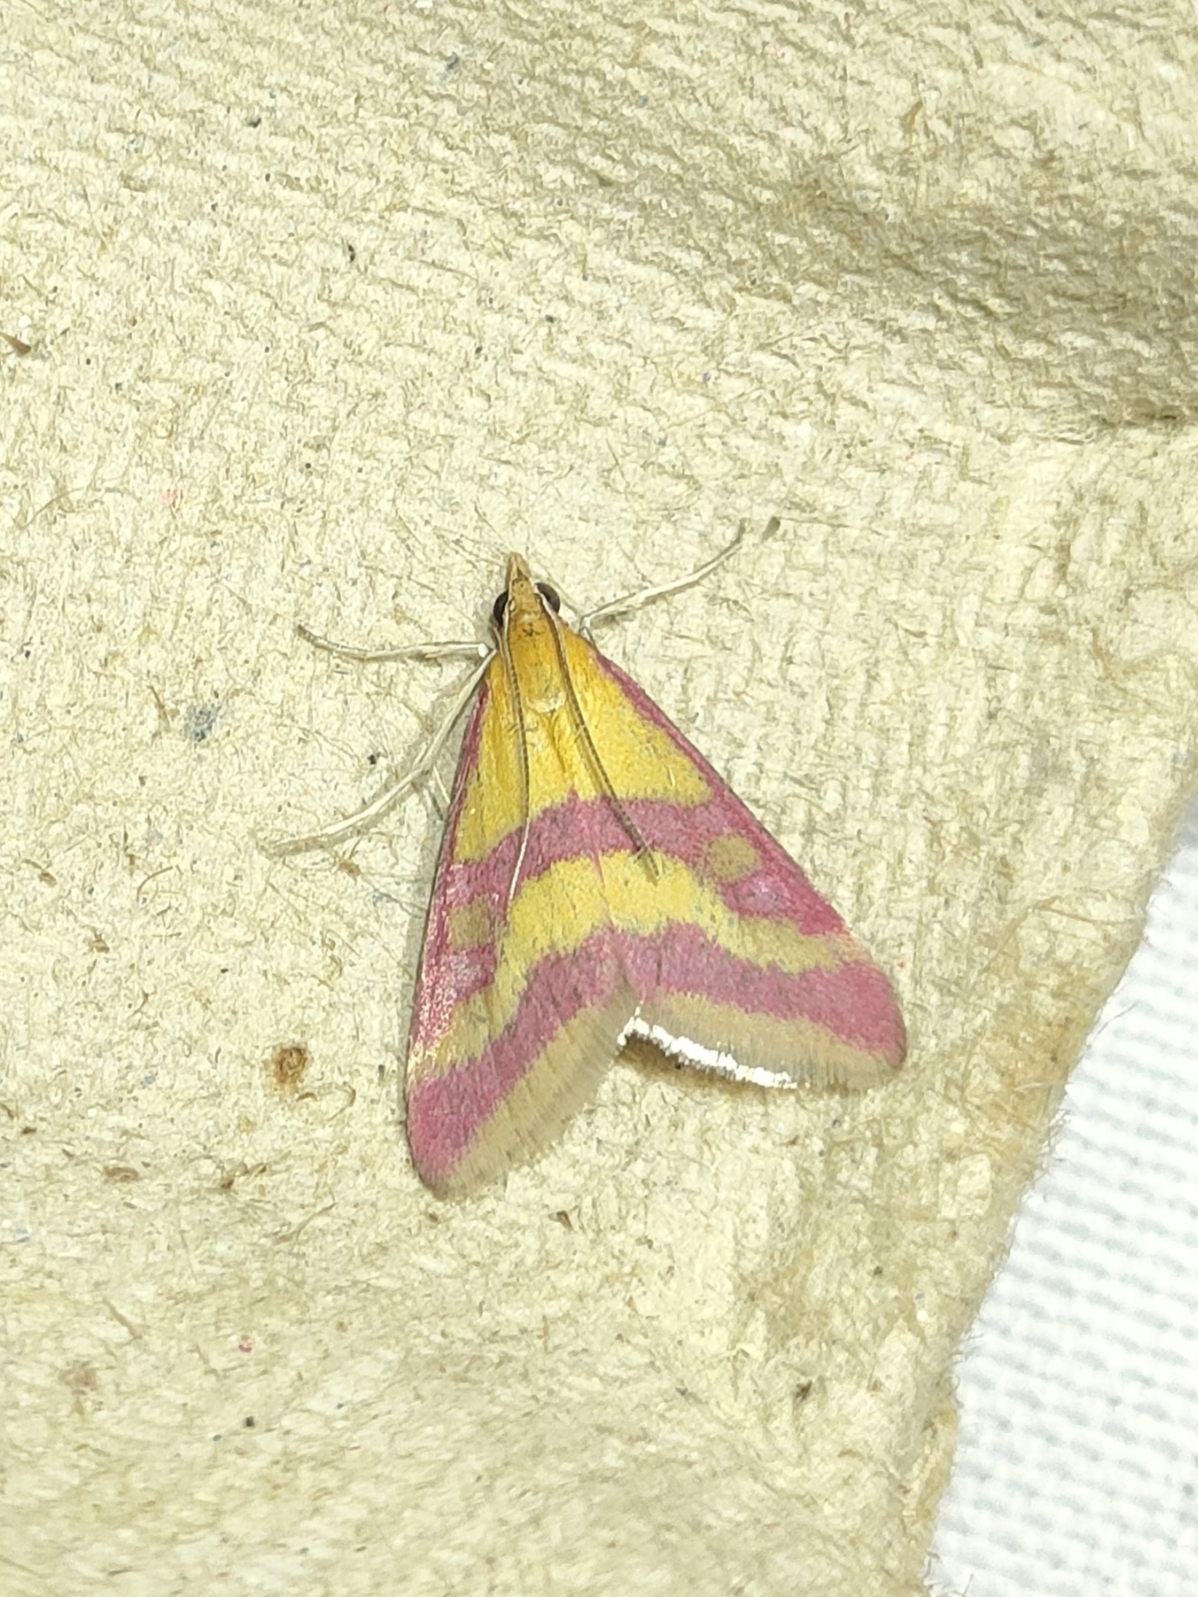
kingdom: Animalia
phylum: Arthropoda
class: Insecta
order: Lepidoptera
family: Crambidae
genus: Pyrausta
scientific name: Pyrausta sanguinalis
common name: Scarce crimson and gold
